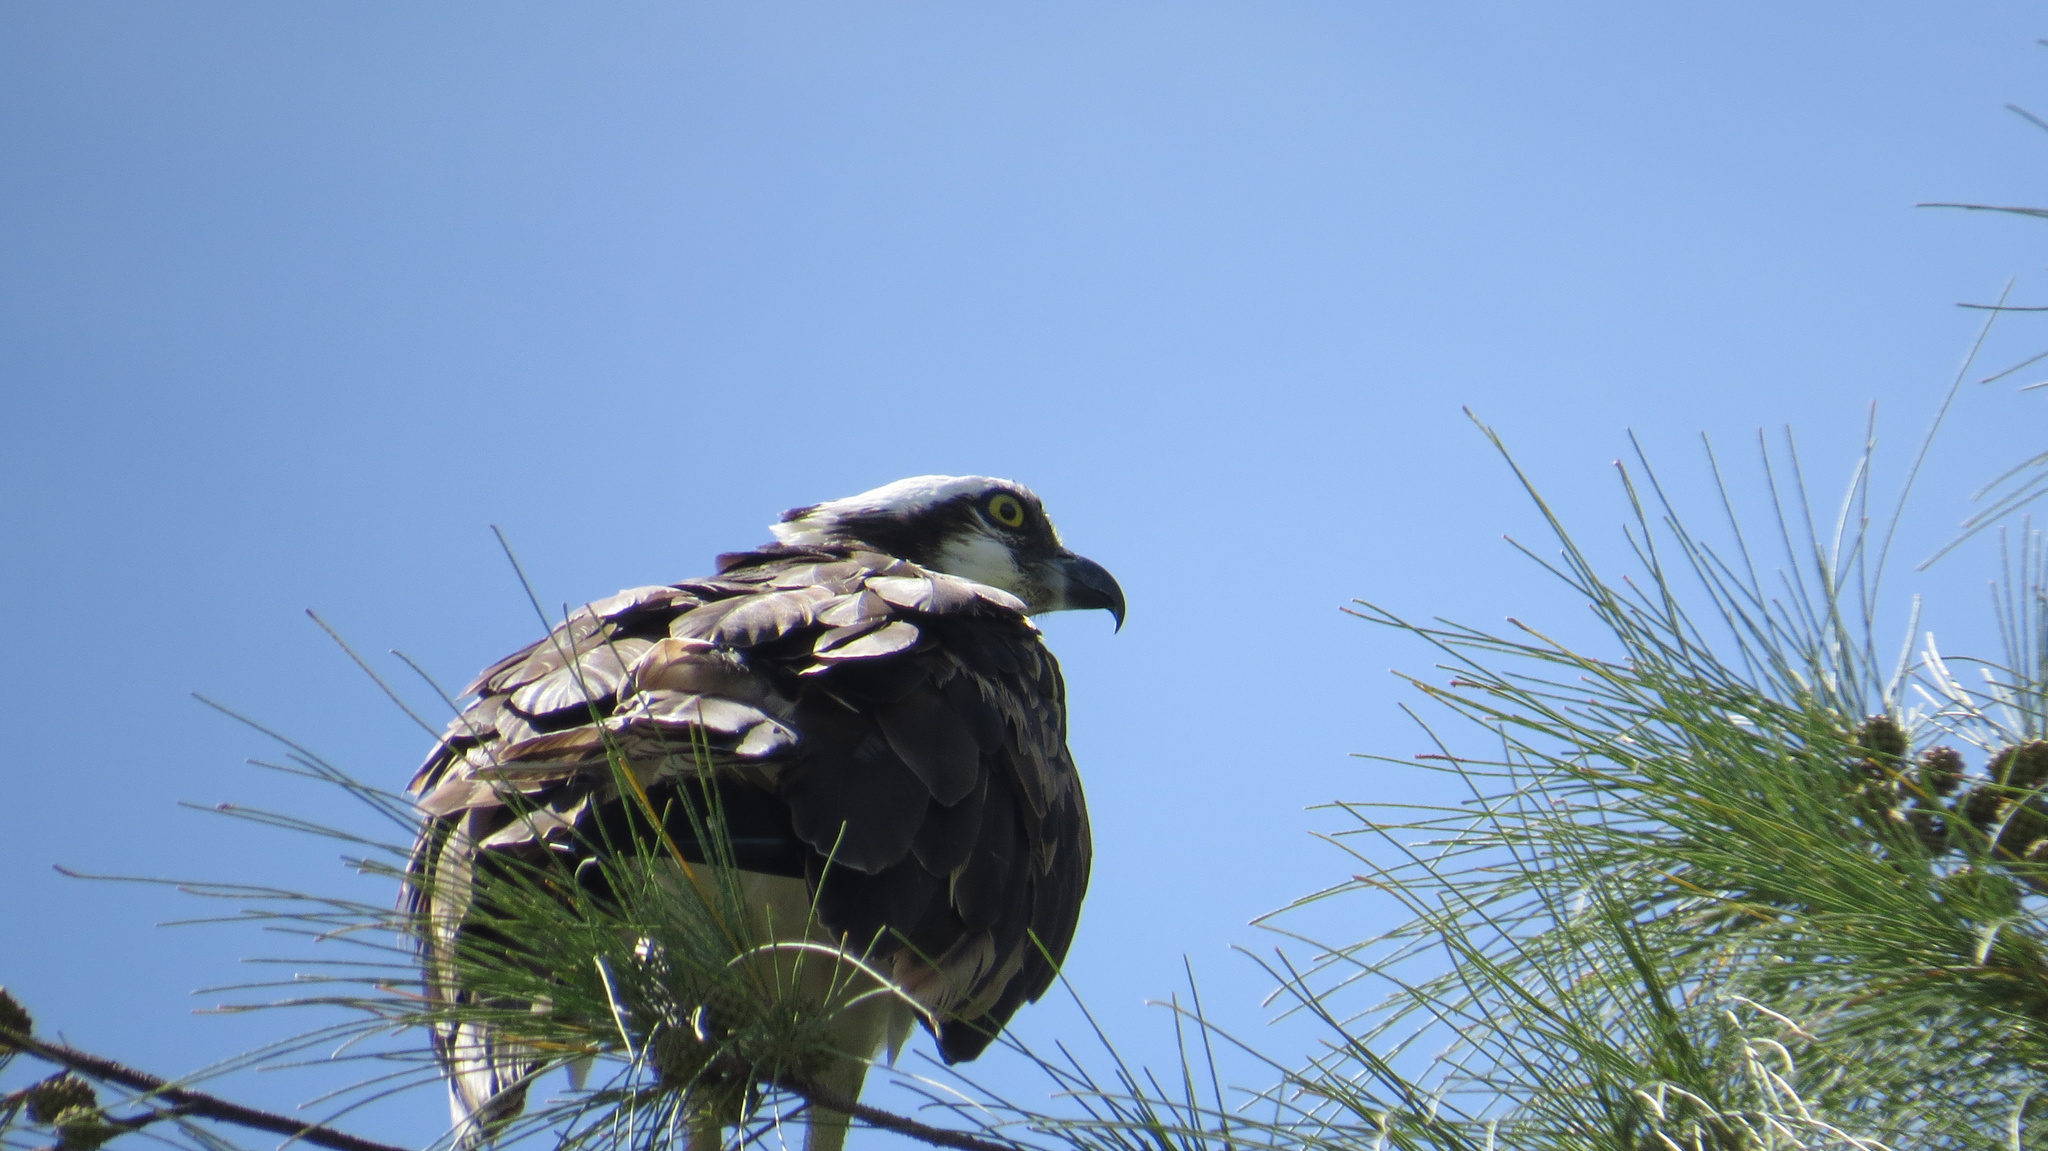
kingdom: Animalia
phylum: Chordata
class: Aves
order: Accipitriformes
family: Pandionidae
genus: Pandion
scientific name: Pandion haliaetus
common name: Osprey
